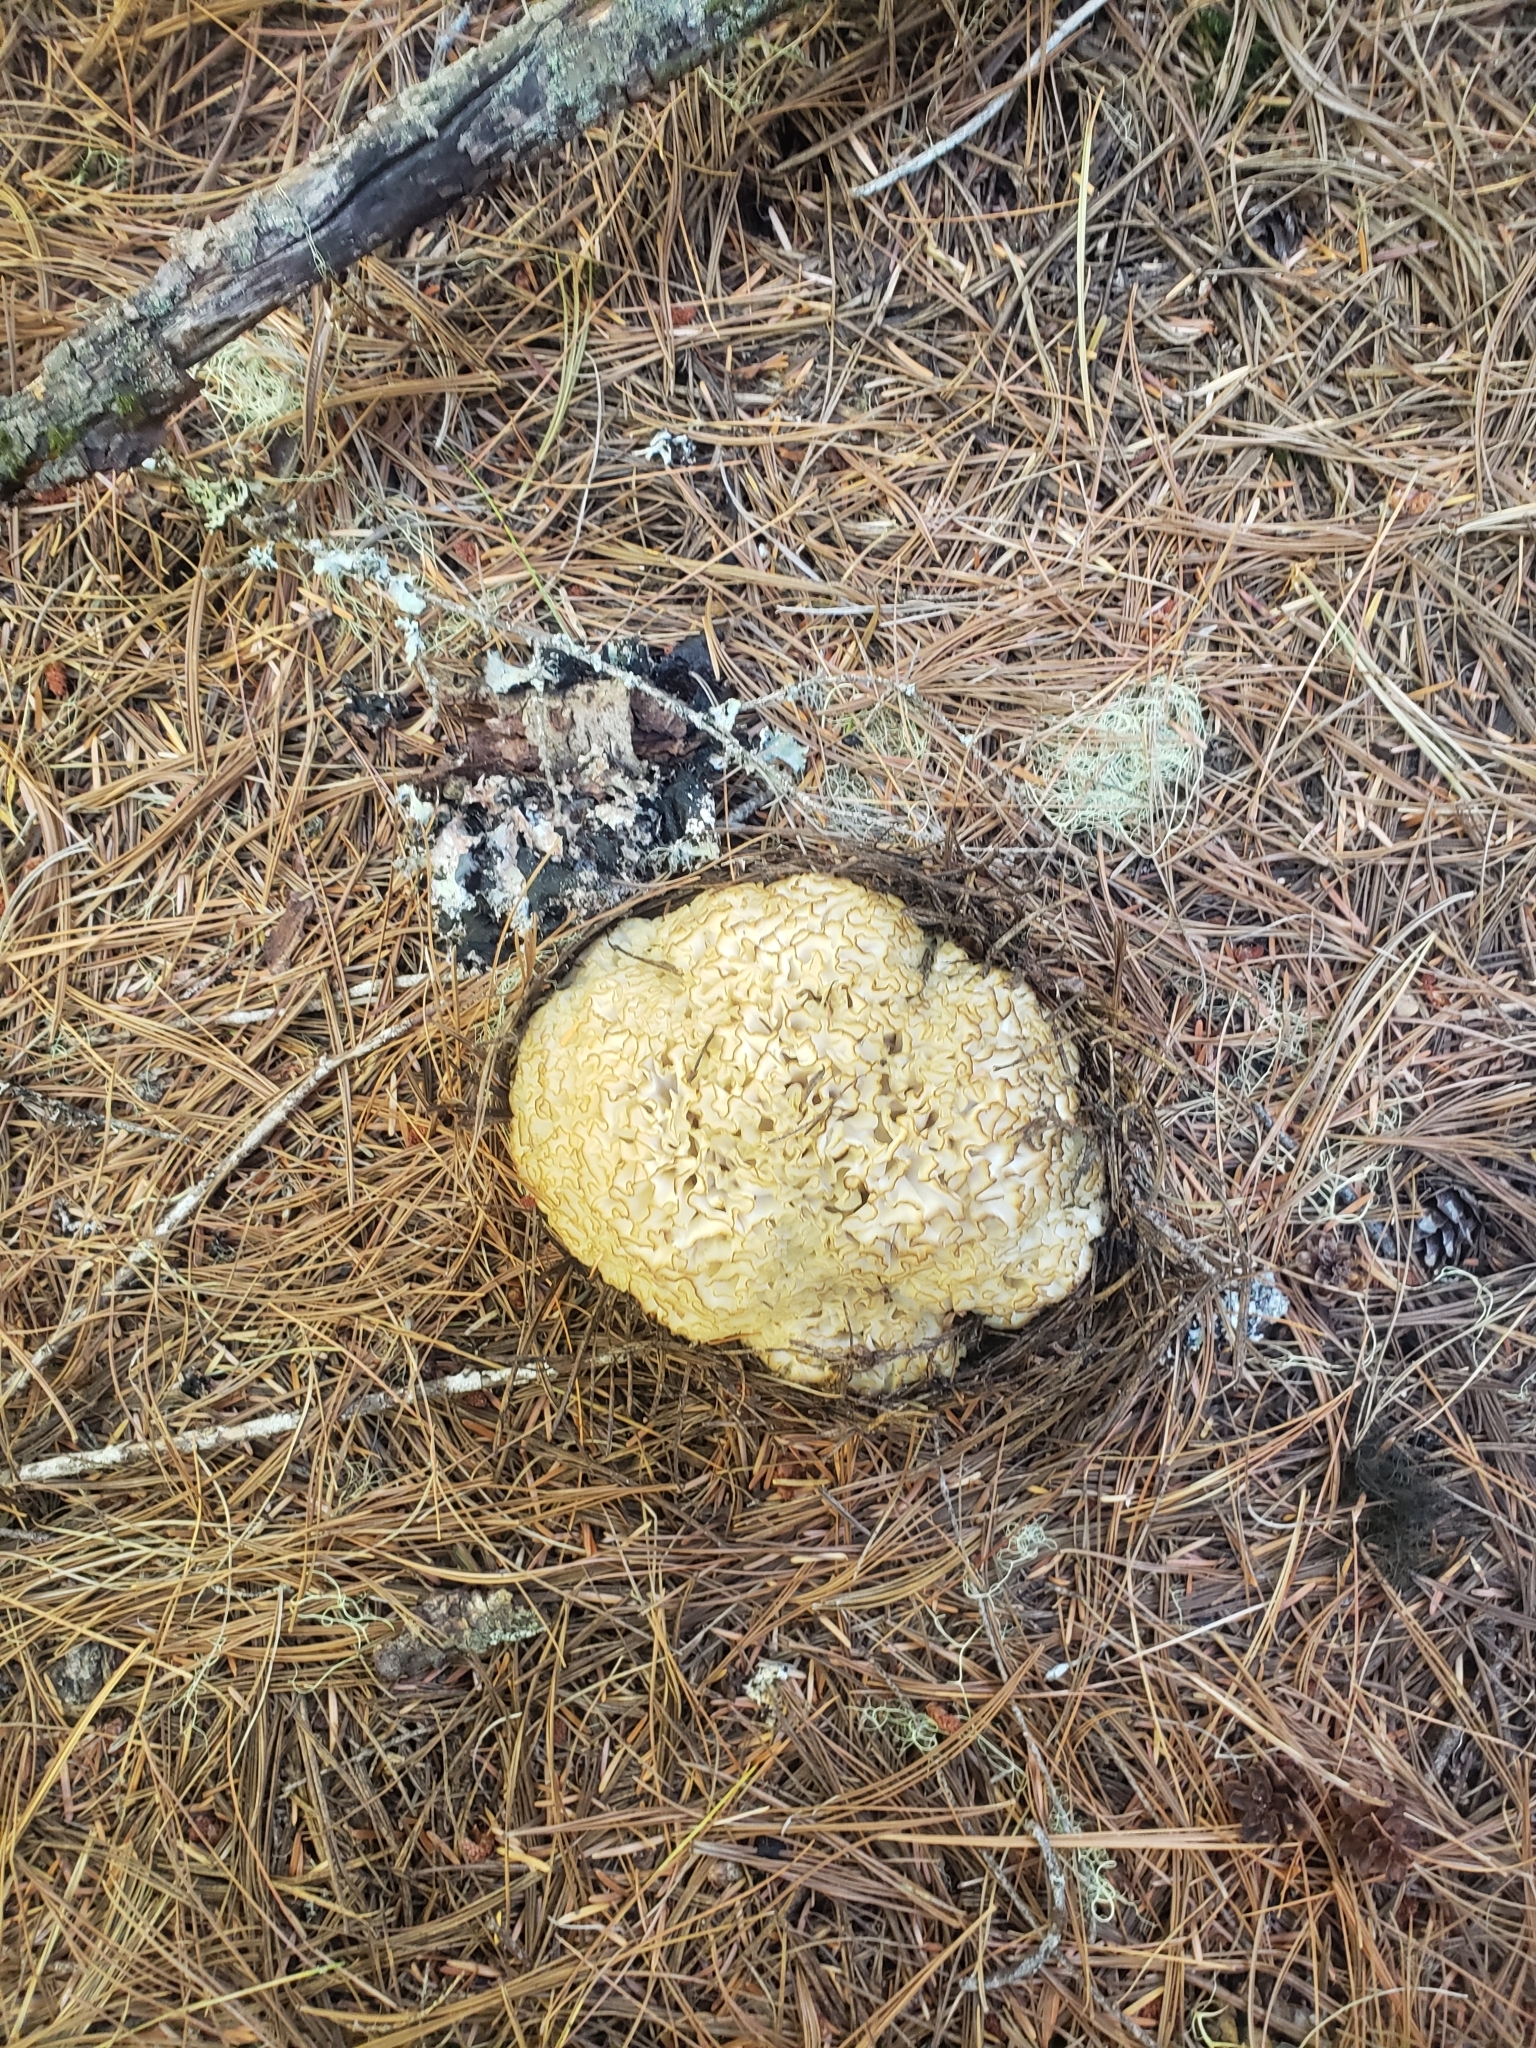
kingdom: Fungi
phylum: Basidiomycota
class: Agaricomycetes
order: Polyporales
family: Sparassidaceae
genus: Sparassis
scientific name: Sparassis radicata
